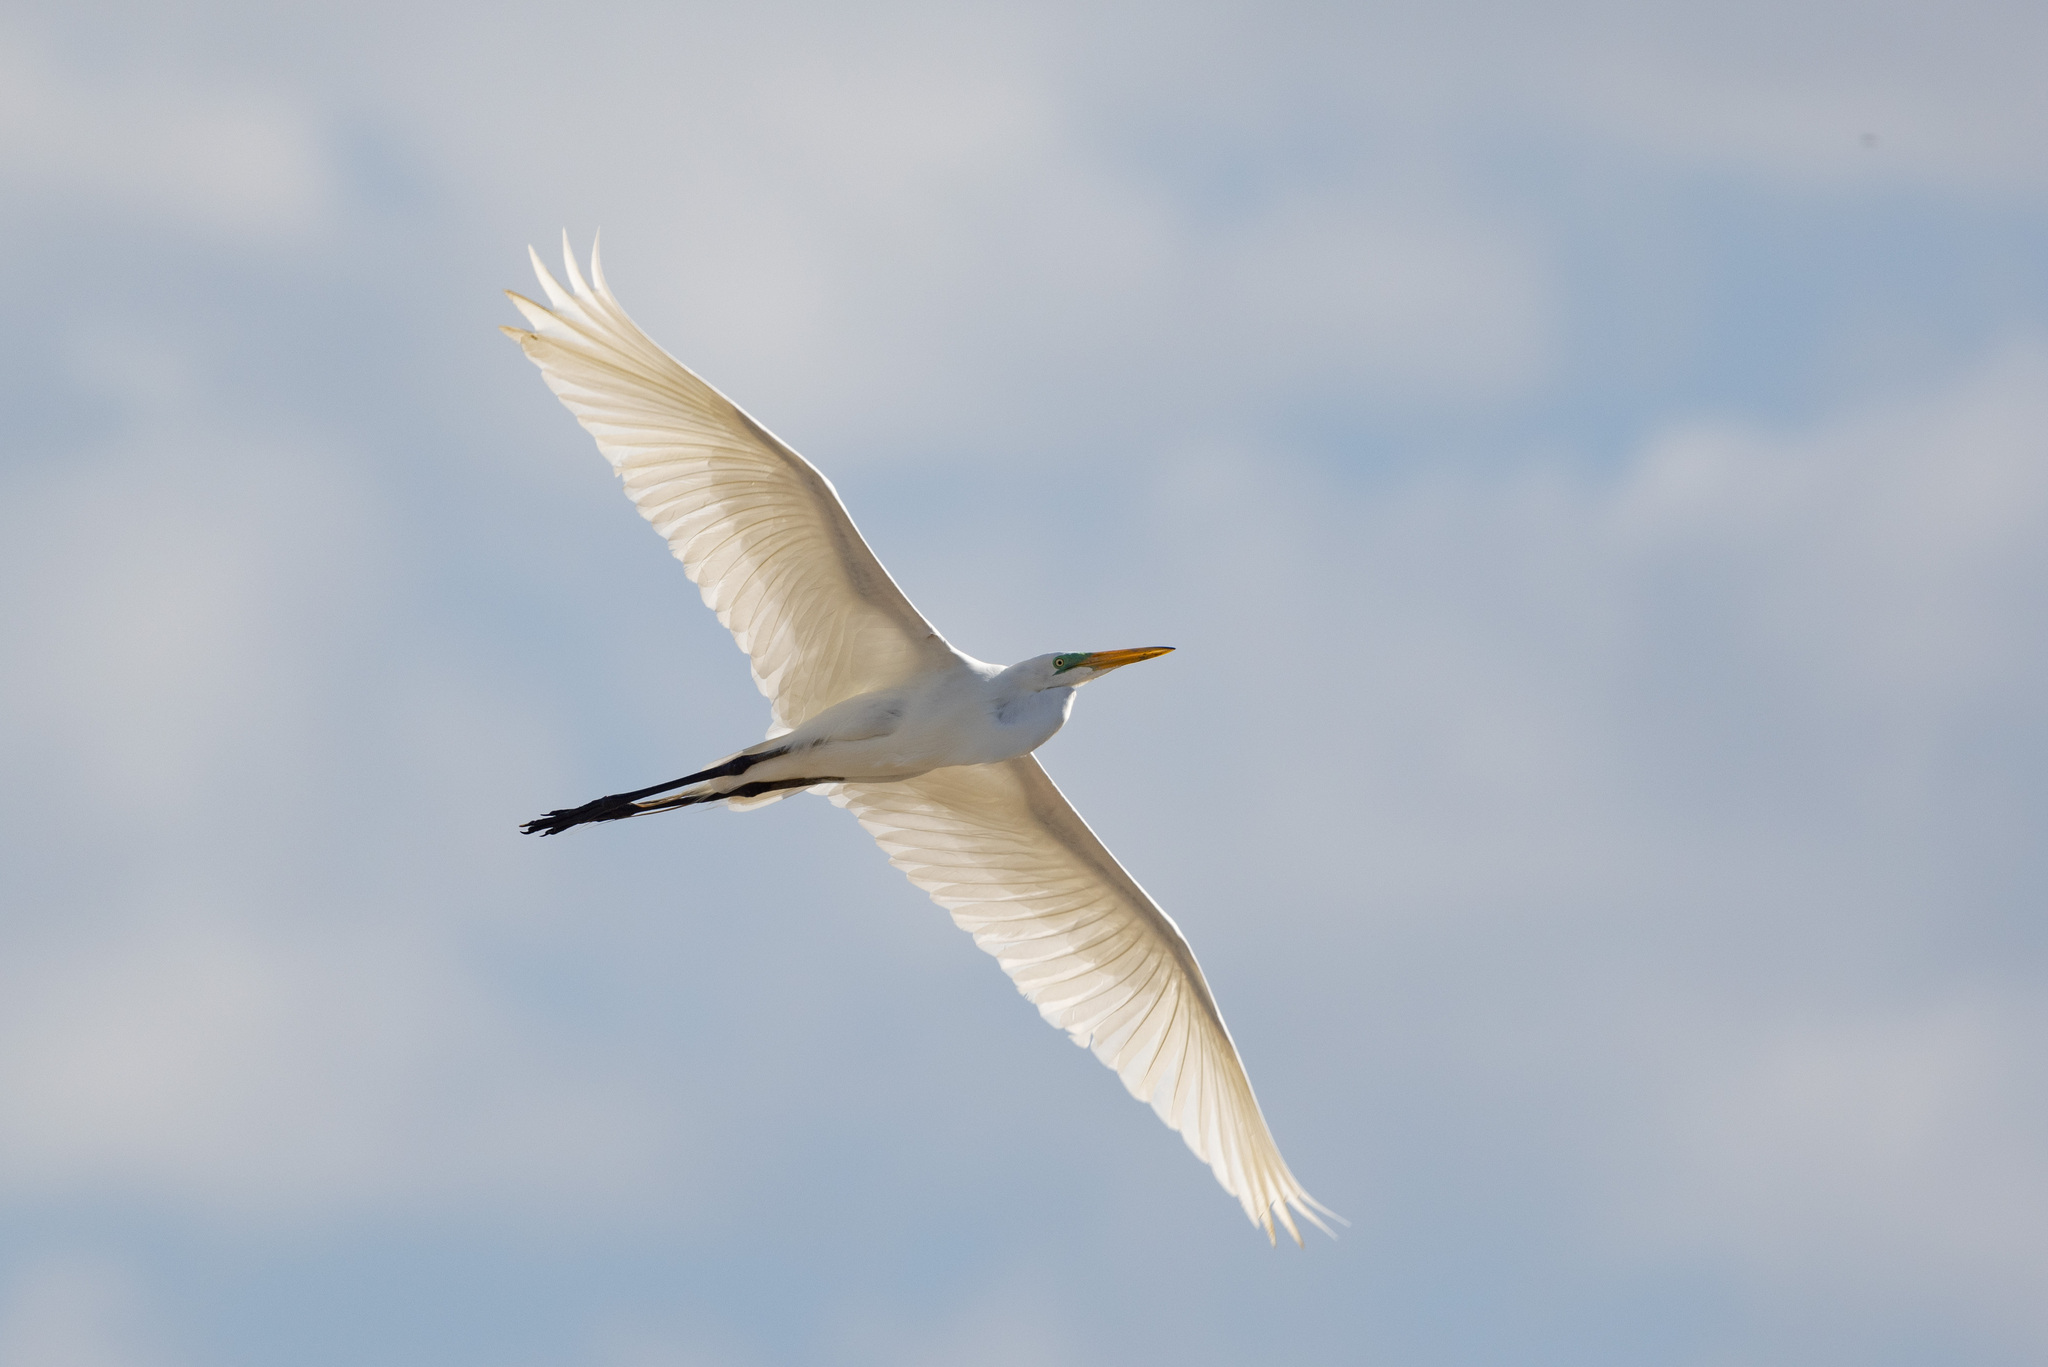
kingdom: Animalia
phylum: Chordata
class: Aves
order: Pelecaniformes
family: Ardeidae
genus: Ardea
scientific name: Ardea alba
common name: Great egret
